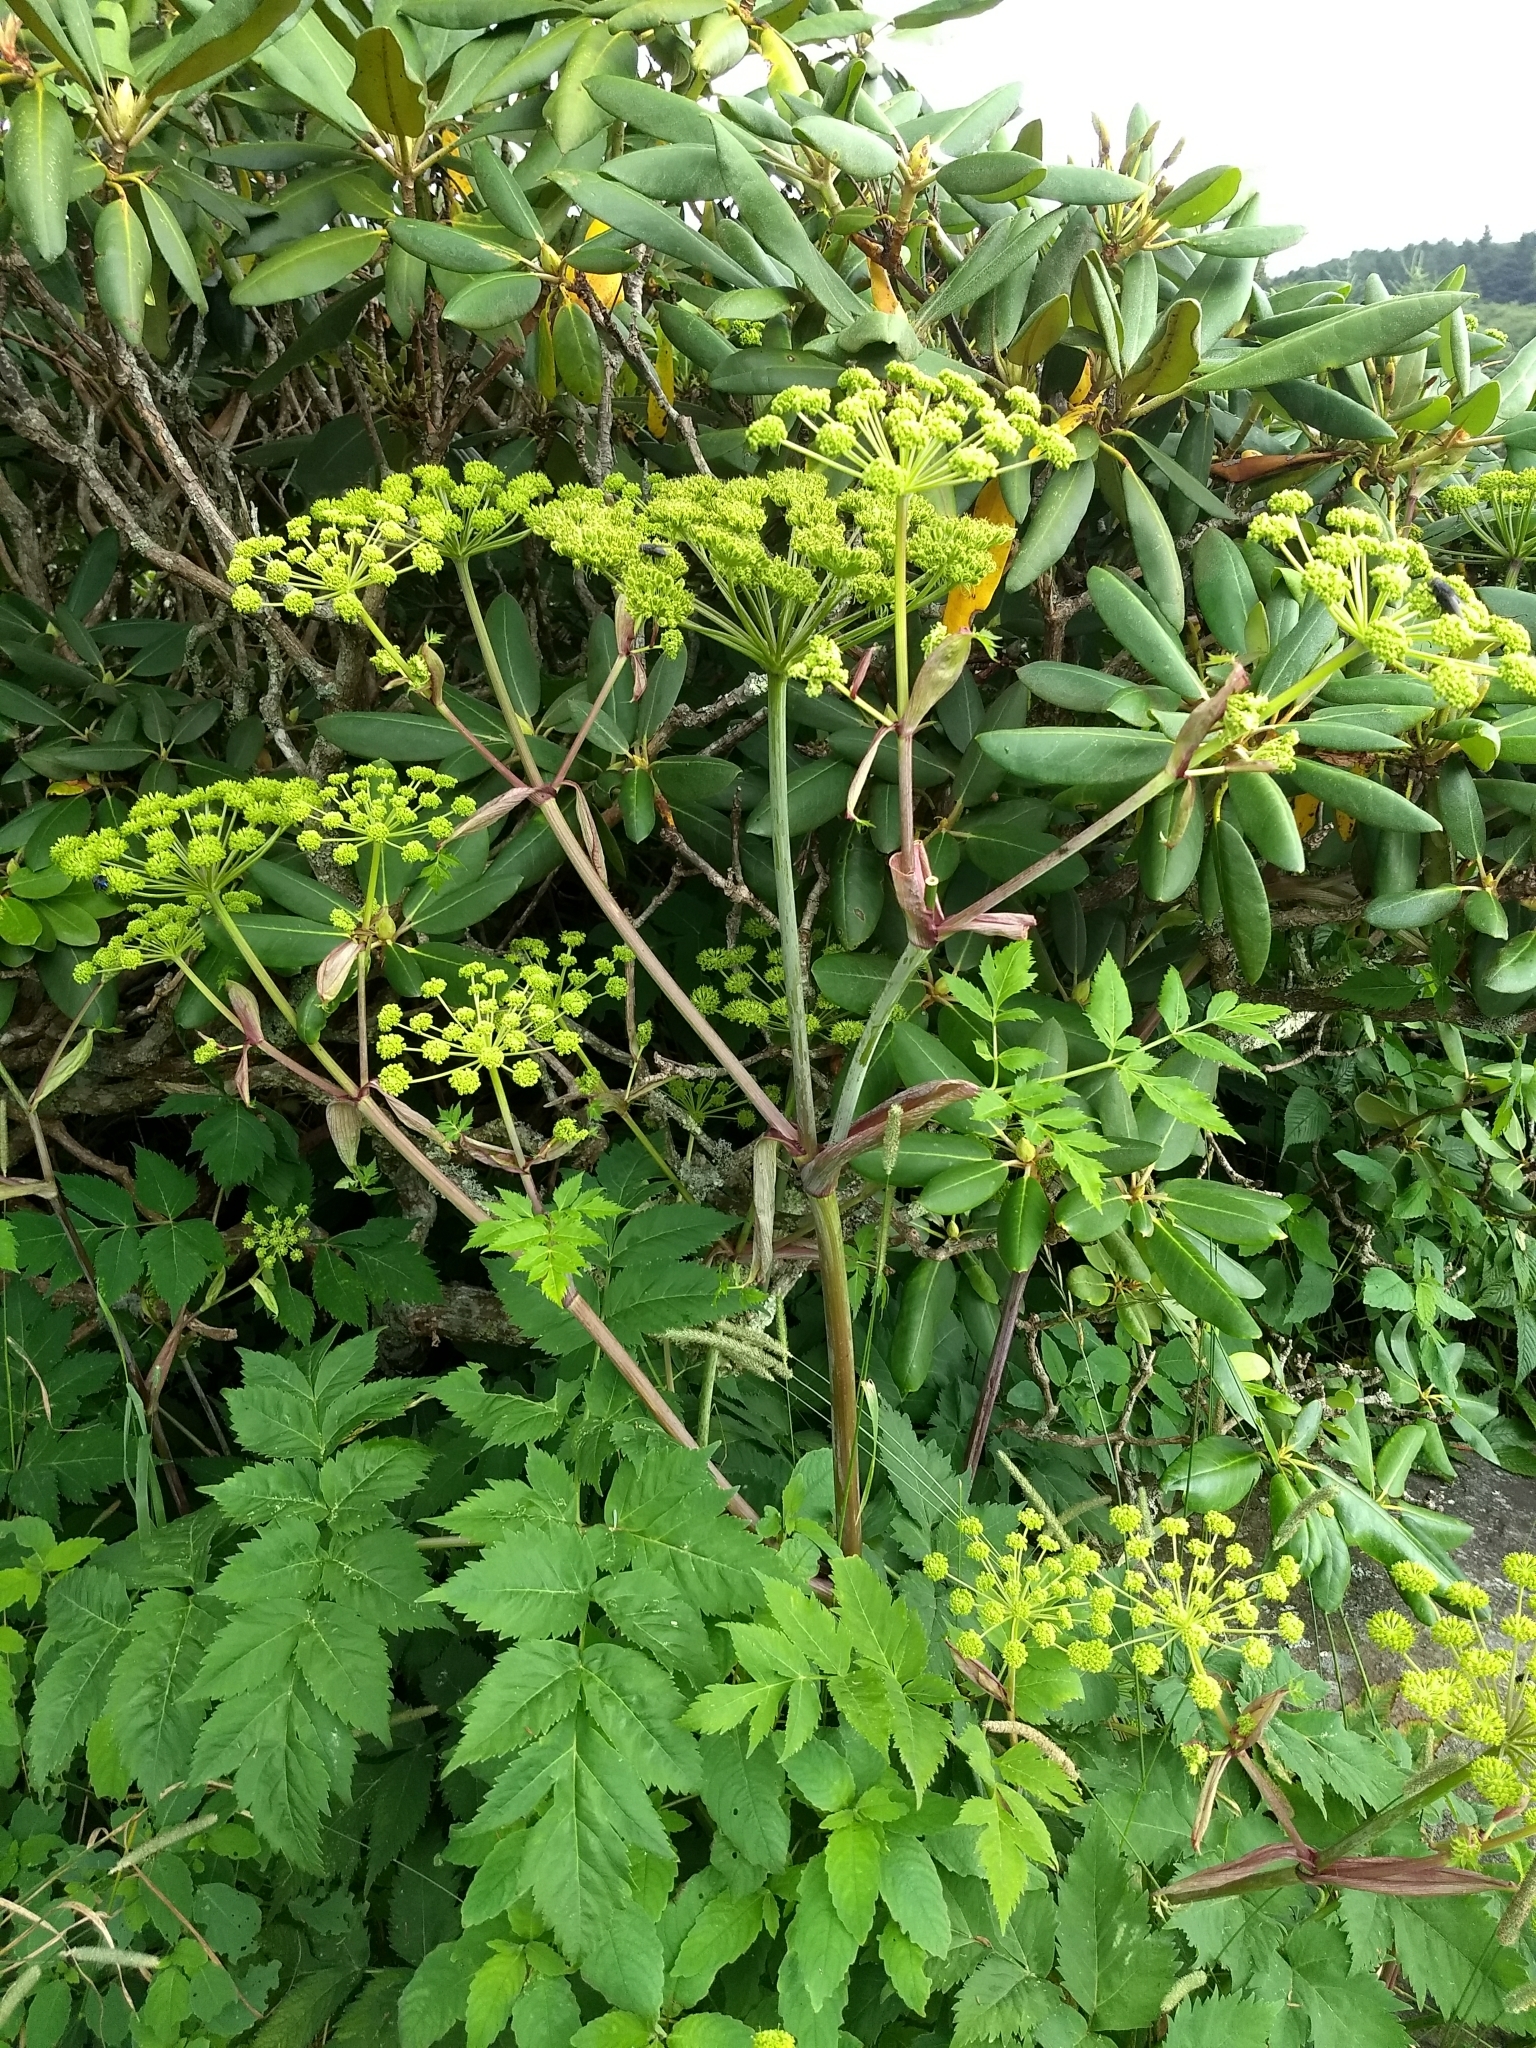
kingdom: Plantae
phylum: Tracheophyta
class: Magnoliopsida
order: Apiales
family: Apiaceae
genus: Angelica
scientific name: Angelica triquinata
